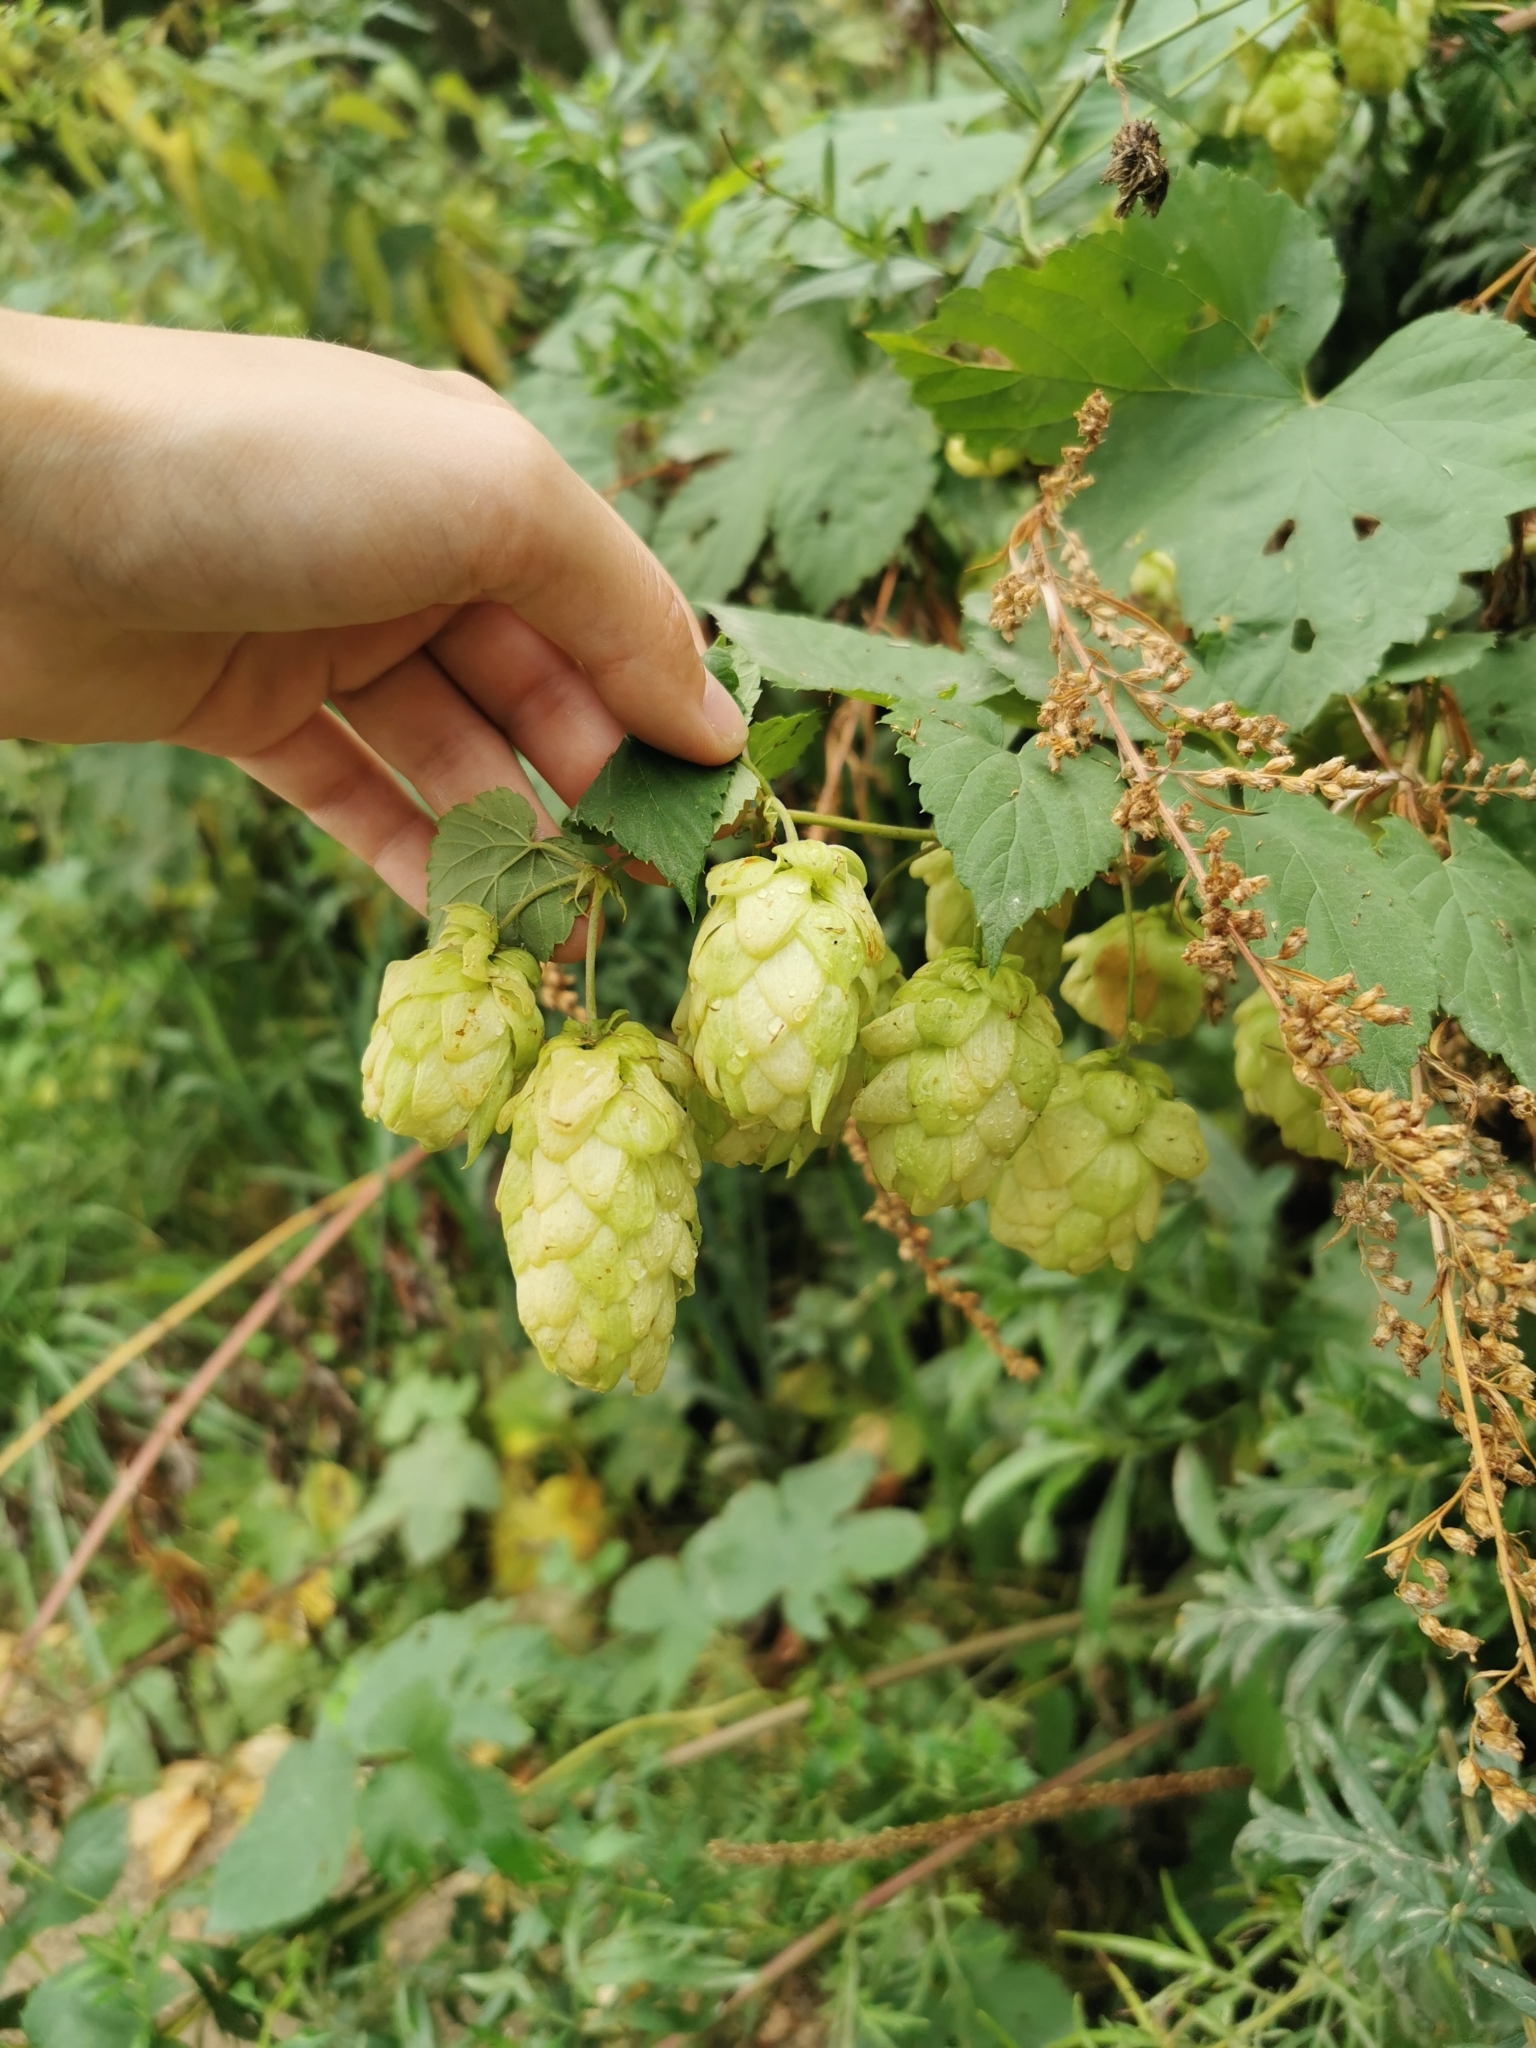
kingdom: Plantae
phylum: Tracheophyta
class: Magnoliopsida
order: Rosales
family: Cannabaceae
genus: Humulus
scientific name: Humulus lupulus
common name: Hop
